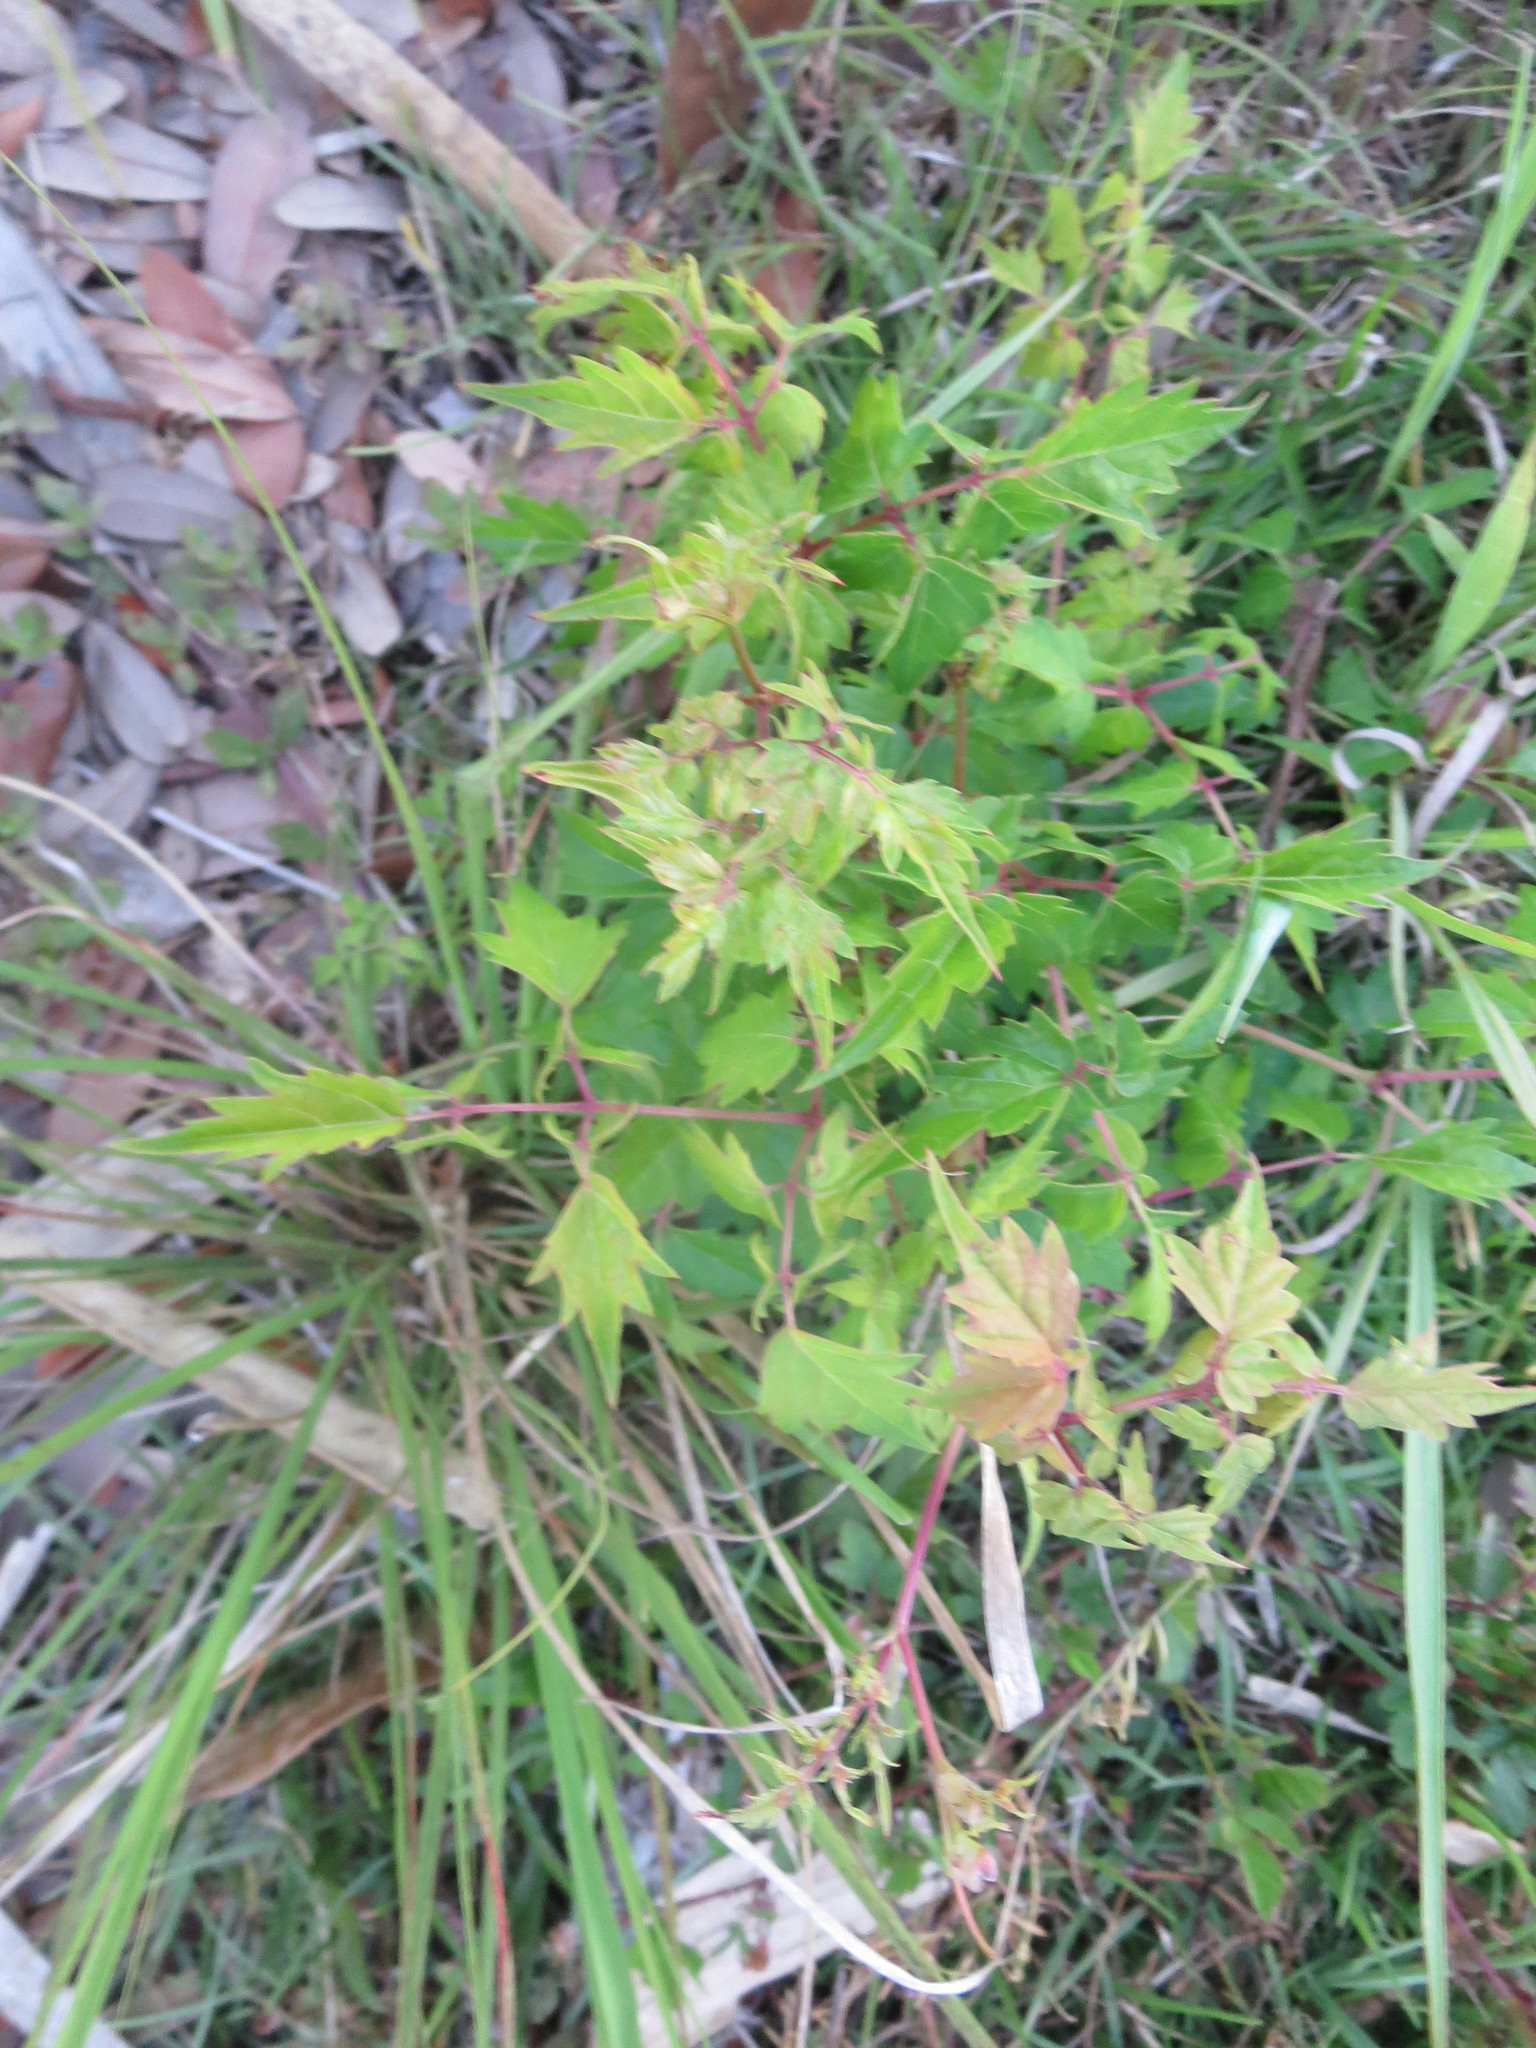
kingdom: Plantae
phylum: Tracheophyta
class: Magnoliopsida
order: Vitales
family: Vitaceae
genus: Nekemias
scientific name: Nekemias arborea
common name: Peppervine
